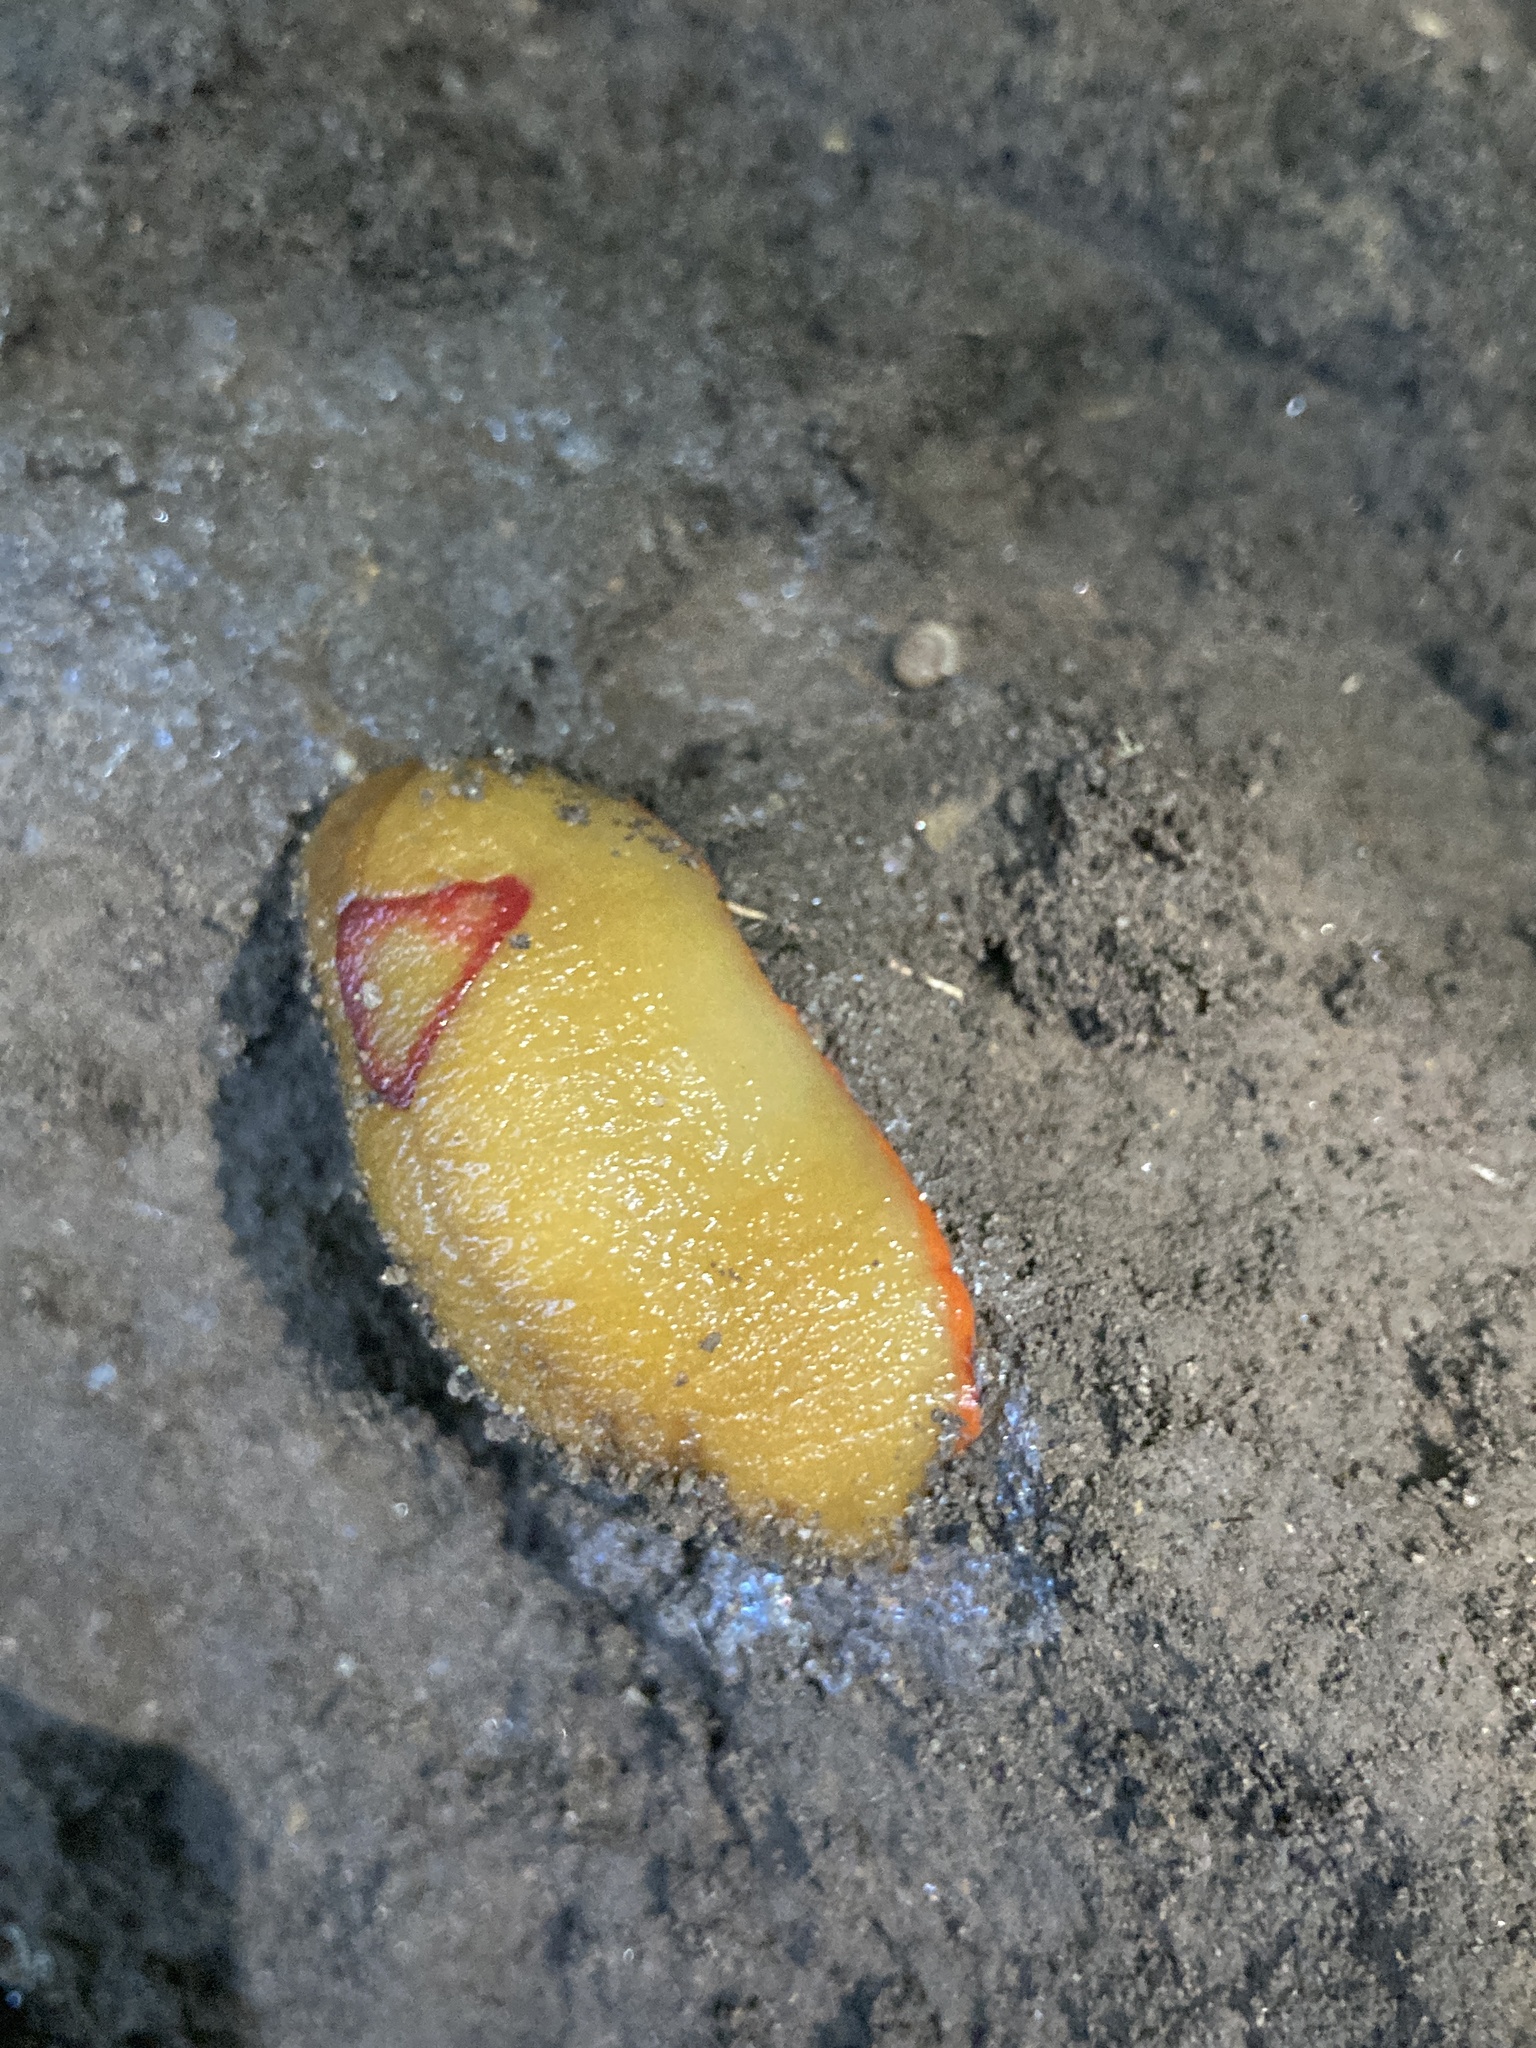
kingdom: Animalia
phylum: Mollusca
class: Gastropoda
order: Stylommatophora
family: Athoracophoridae
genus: Triboniophorus
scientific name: Triboniophorus graeffei
